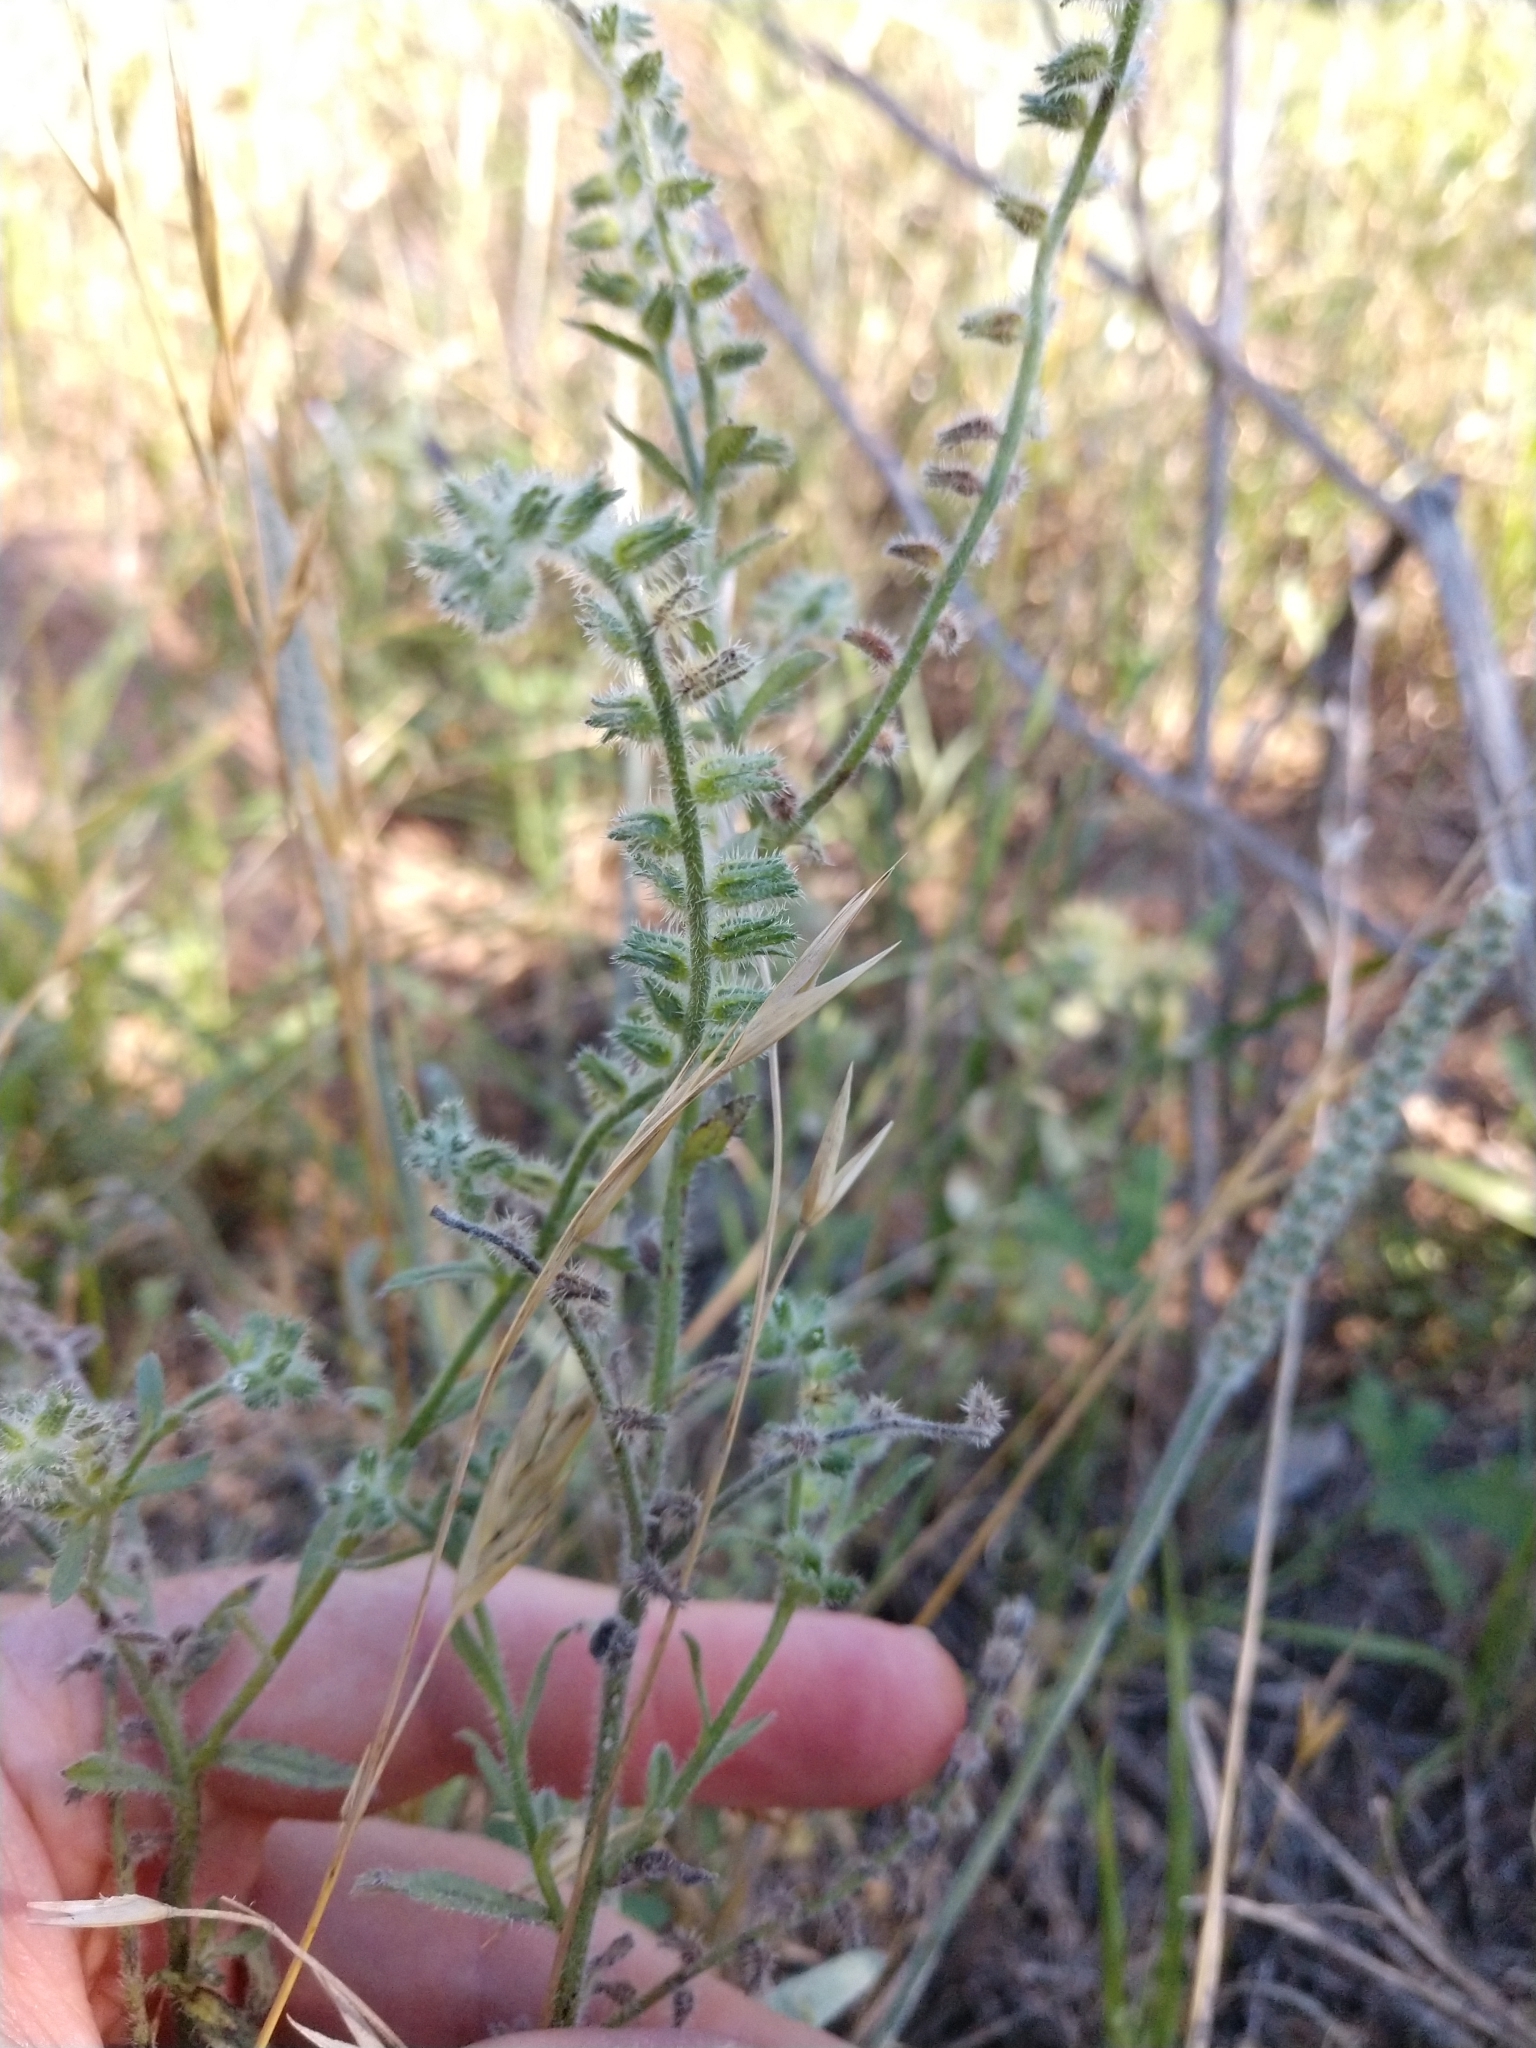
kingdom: Plantae
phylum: Tracheophyta
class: Magnoliopsida
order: Boraginales
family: Boraginaceae
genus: Cryptantha
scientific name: Cryptantha texana
